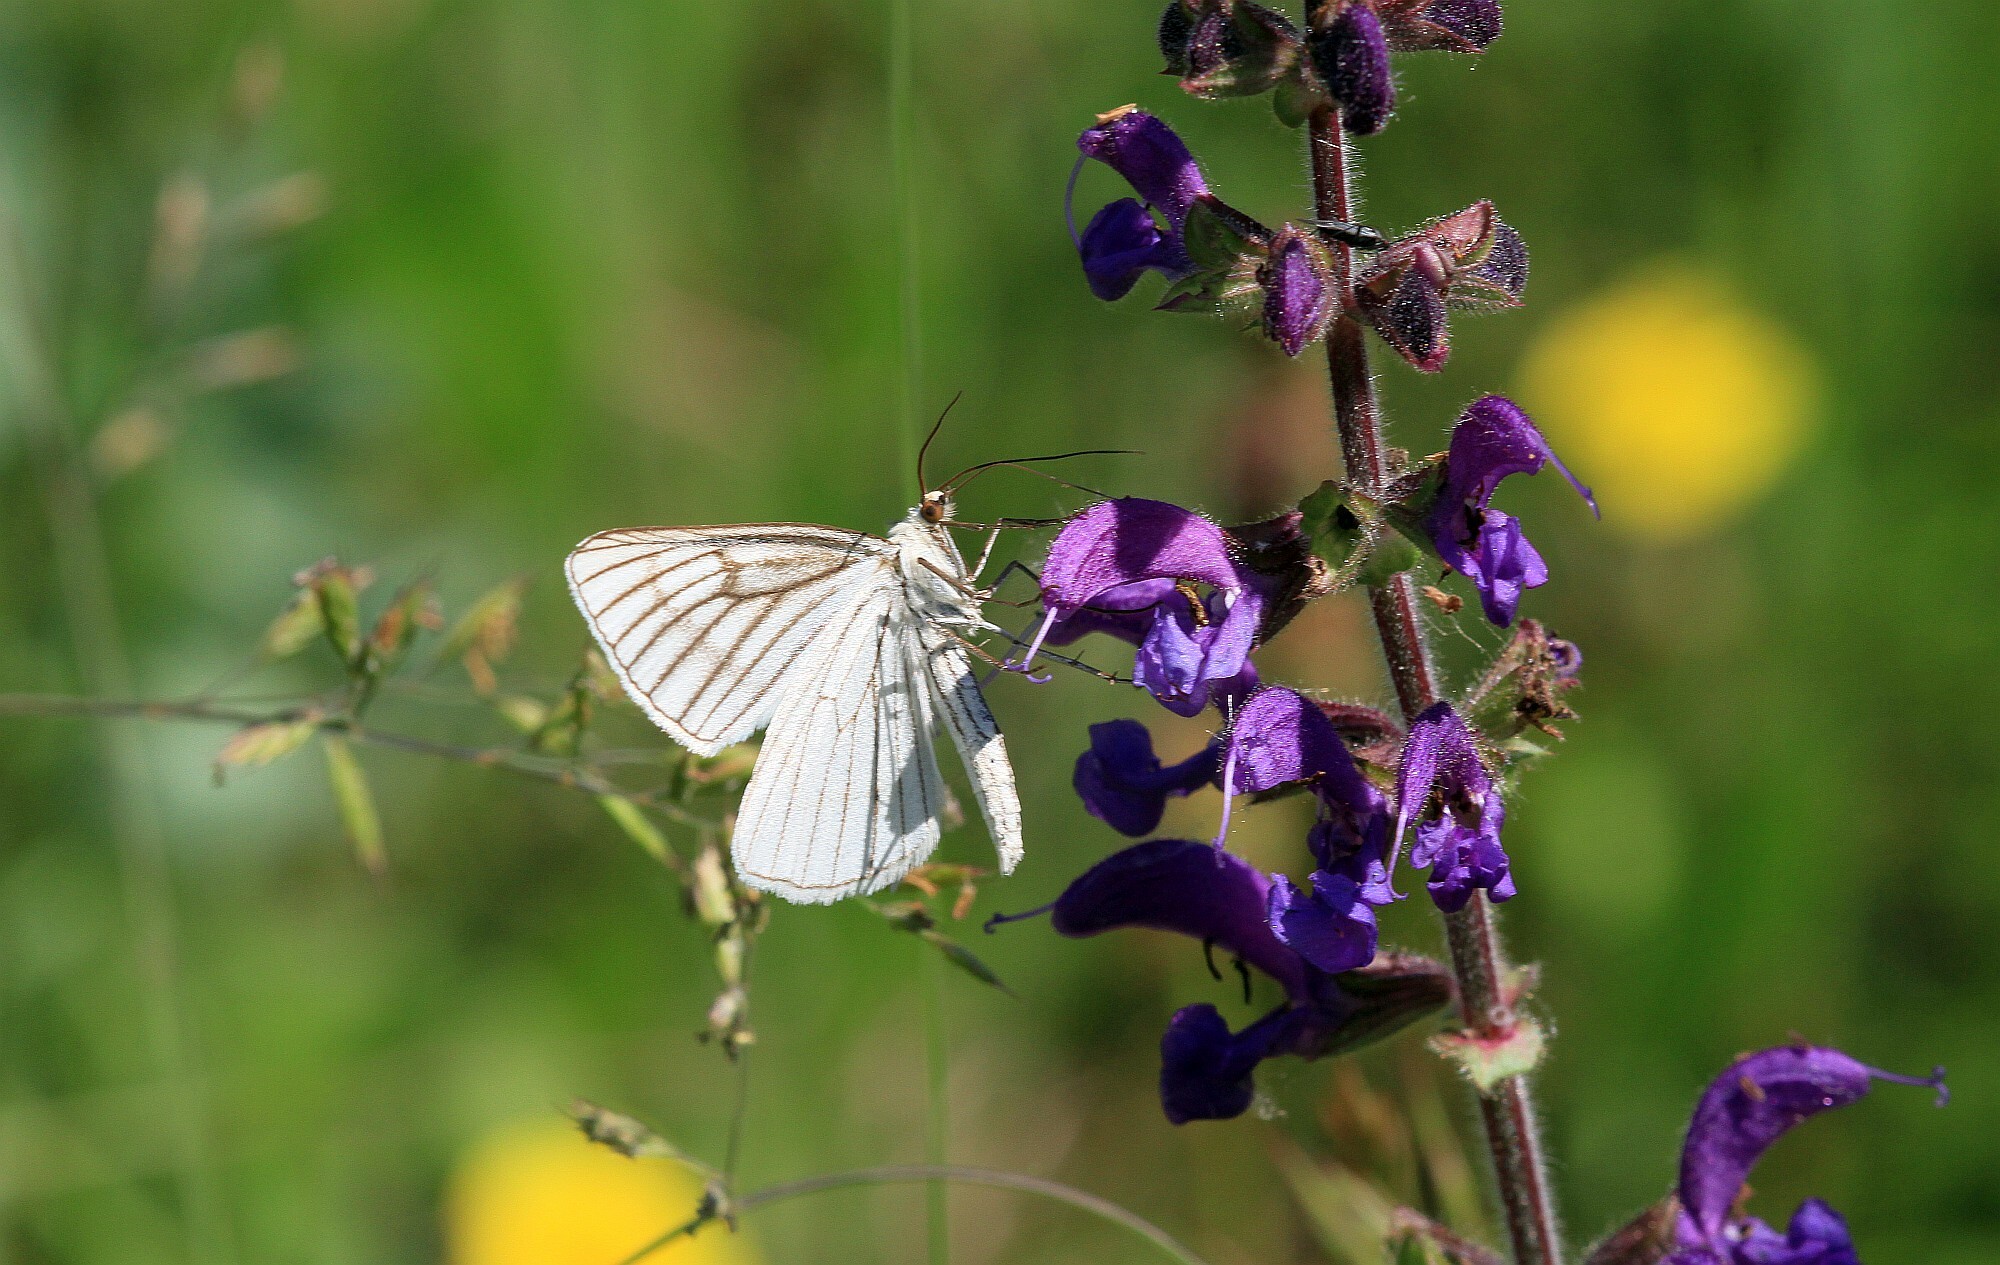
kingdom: Animalia
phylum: Arthropoda
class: Insecta
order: Lepidoptera
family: Geometridae
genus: Siona
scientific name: Siona lineata
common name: Black-veined moth
